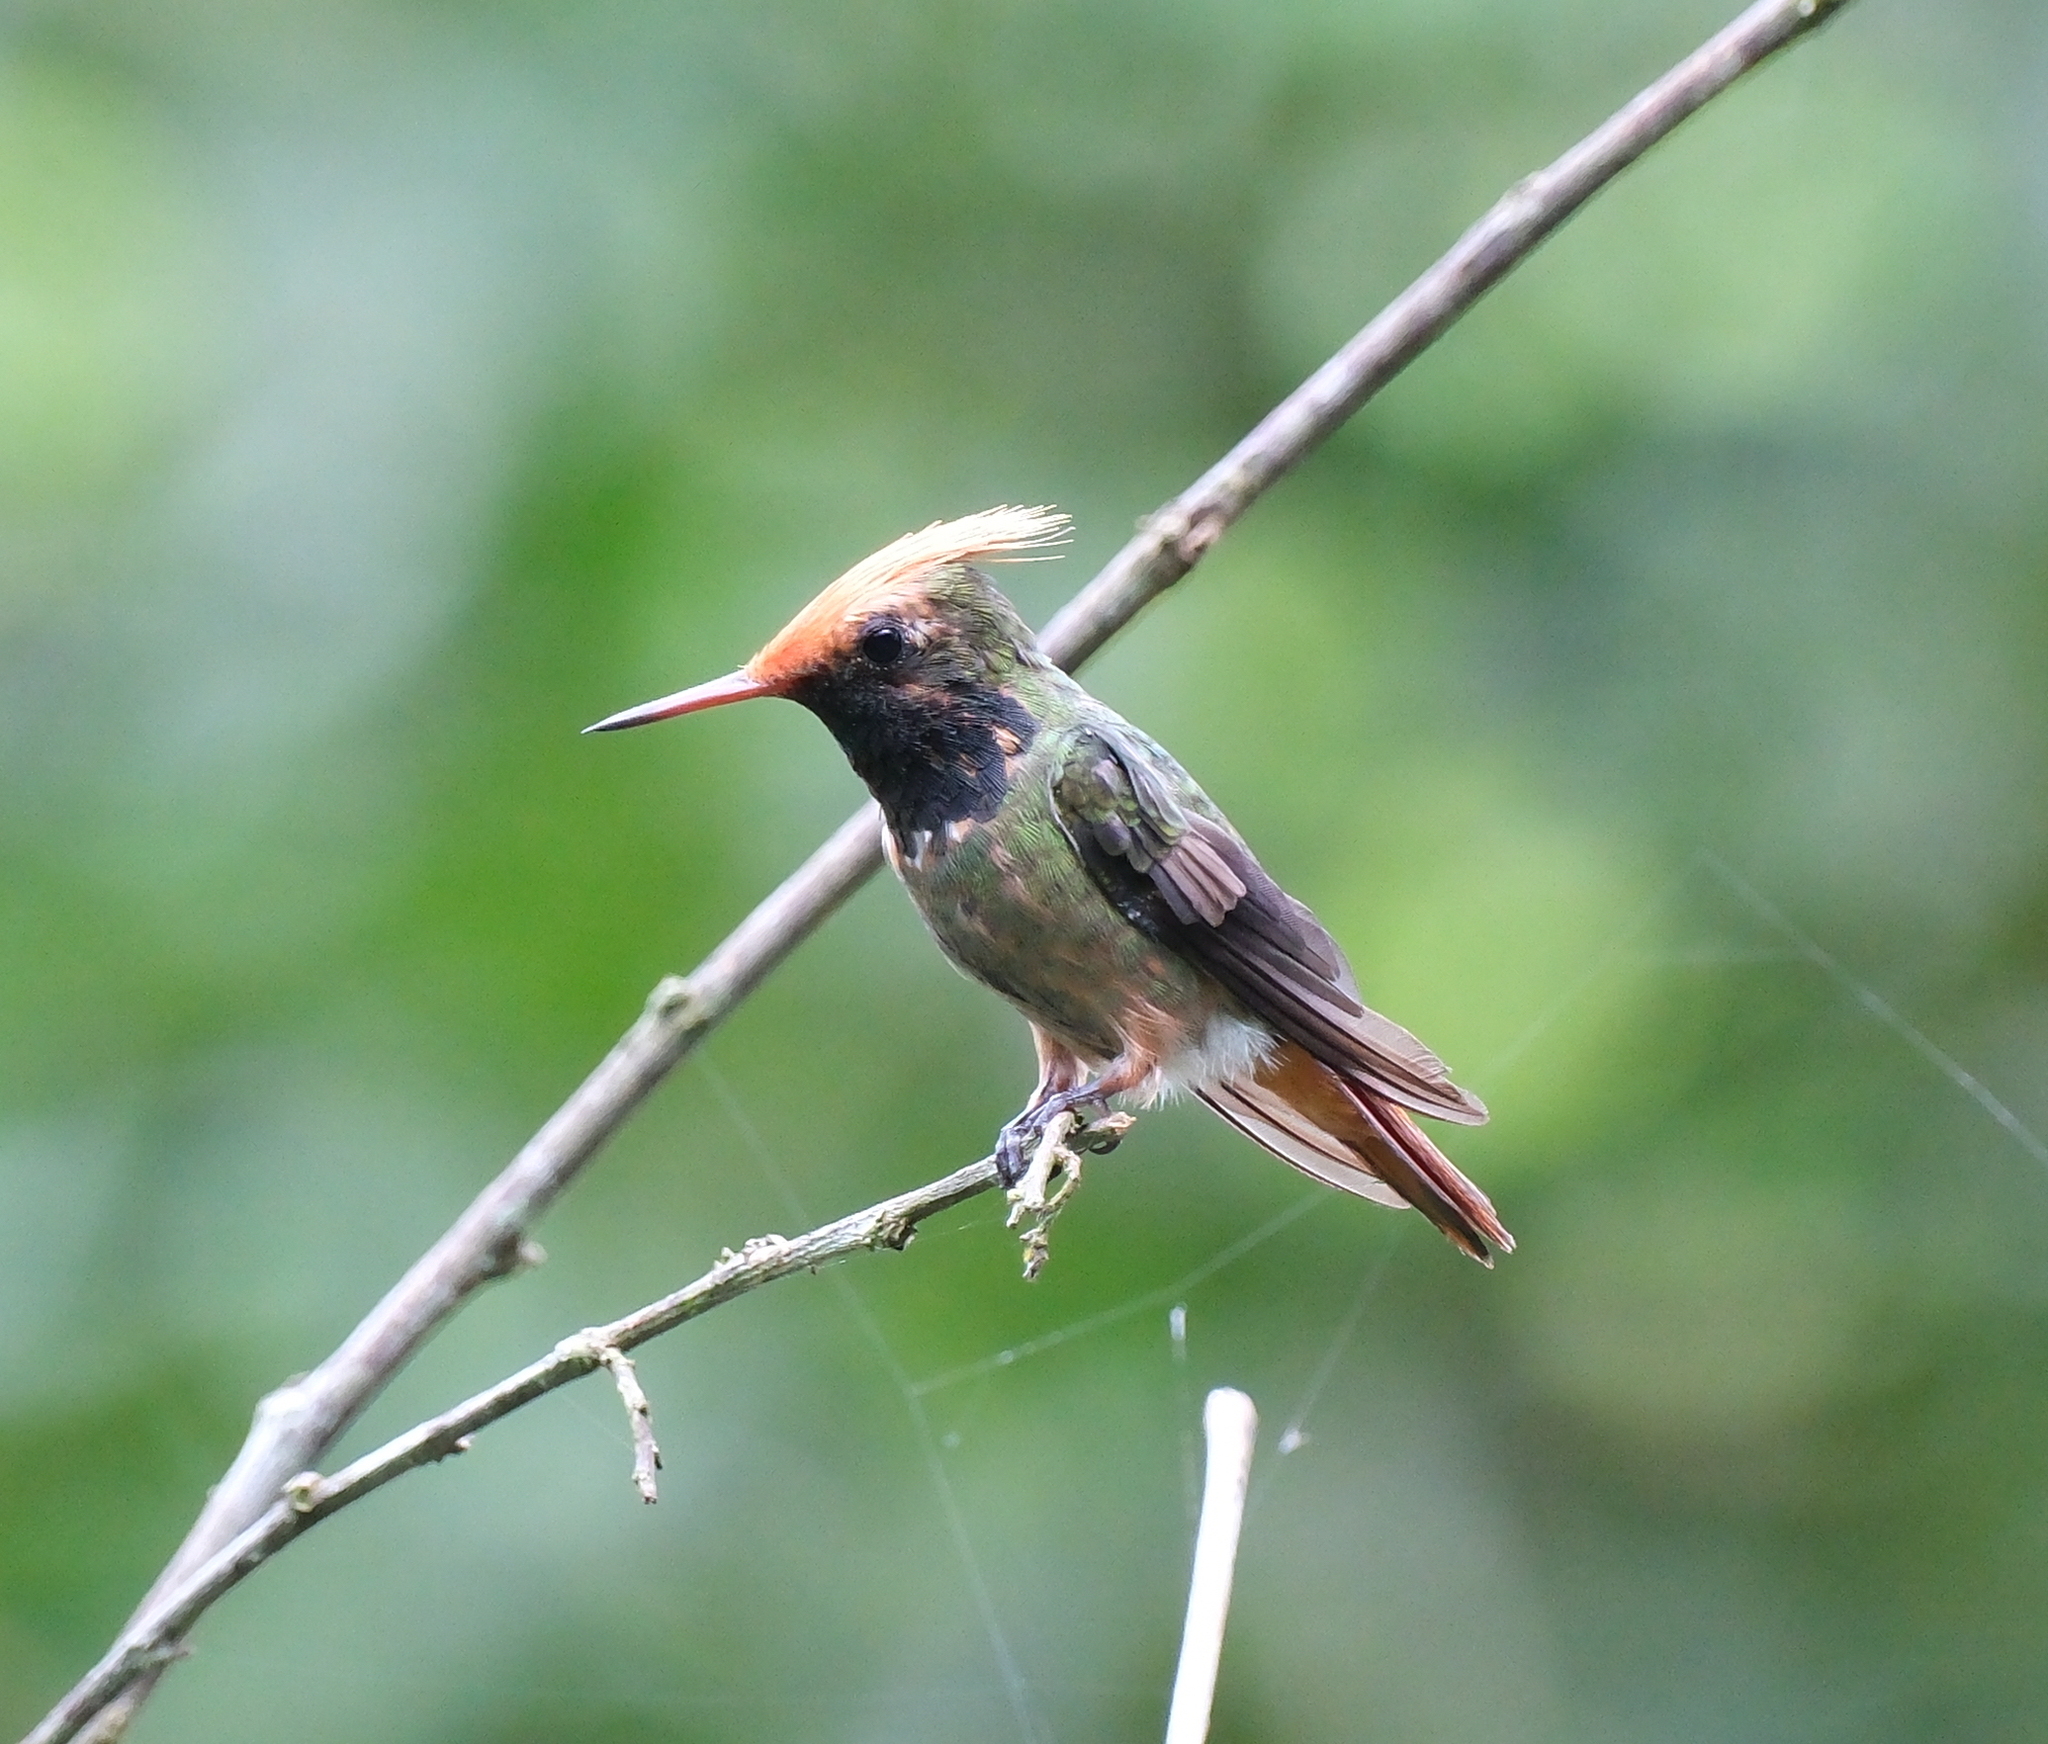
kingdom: Animalia
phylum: Chordata
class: Aves
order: Apodiformes
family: Trochilidae
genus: Lophornis
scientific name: Lophornis delattrei
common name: Rufous-crested coquette
